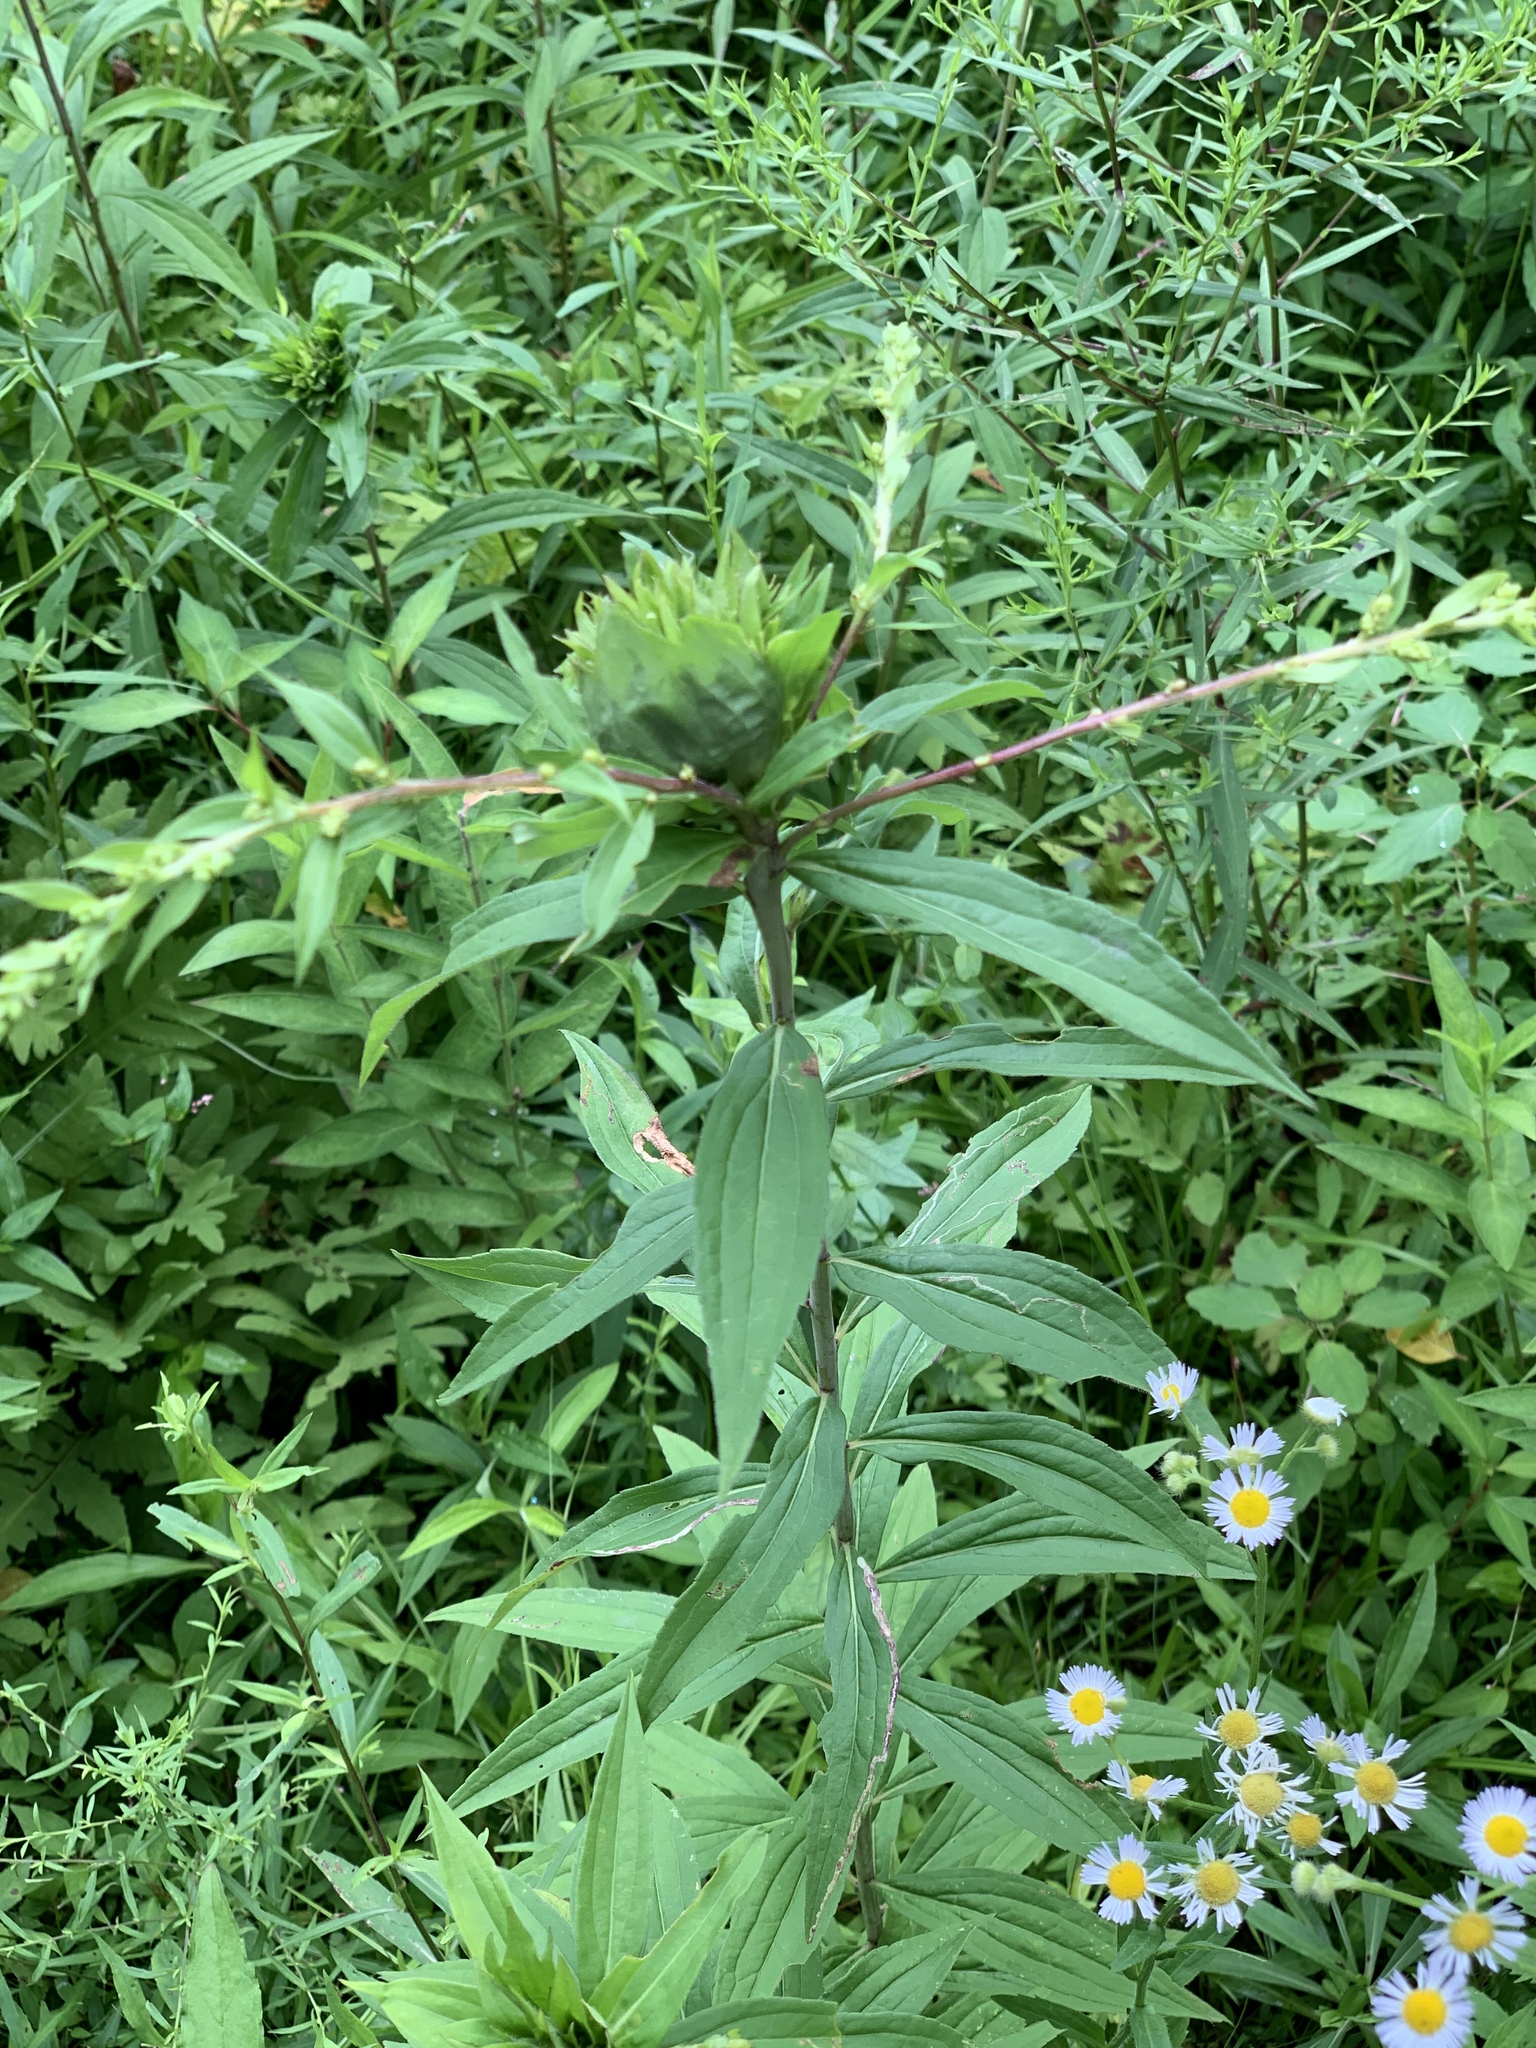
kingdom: Animalia
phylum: Arthropoda
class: Insecta
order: Diptera
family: Cecidomyiidae
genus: Rhopalomyia
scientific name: Rhopalomyia capitata
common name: Giant goldenrod bunch gall midge
